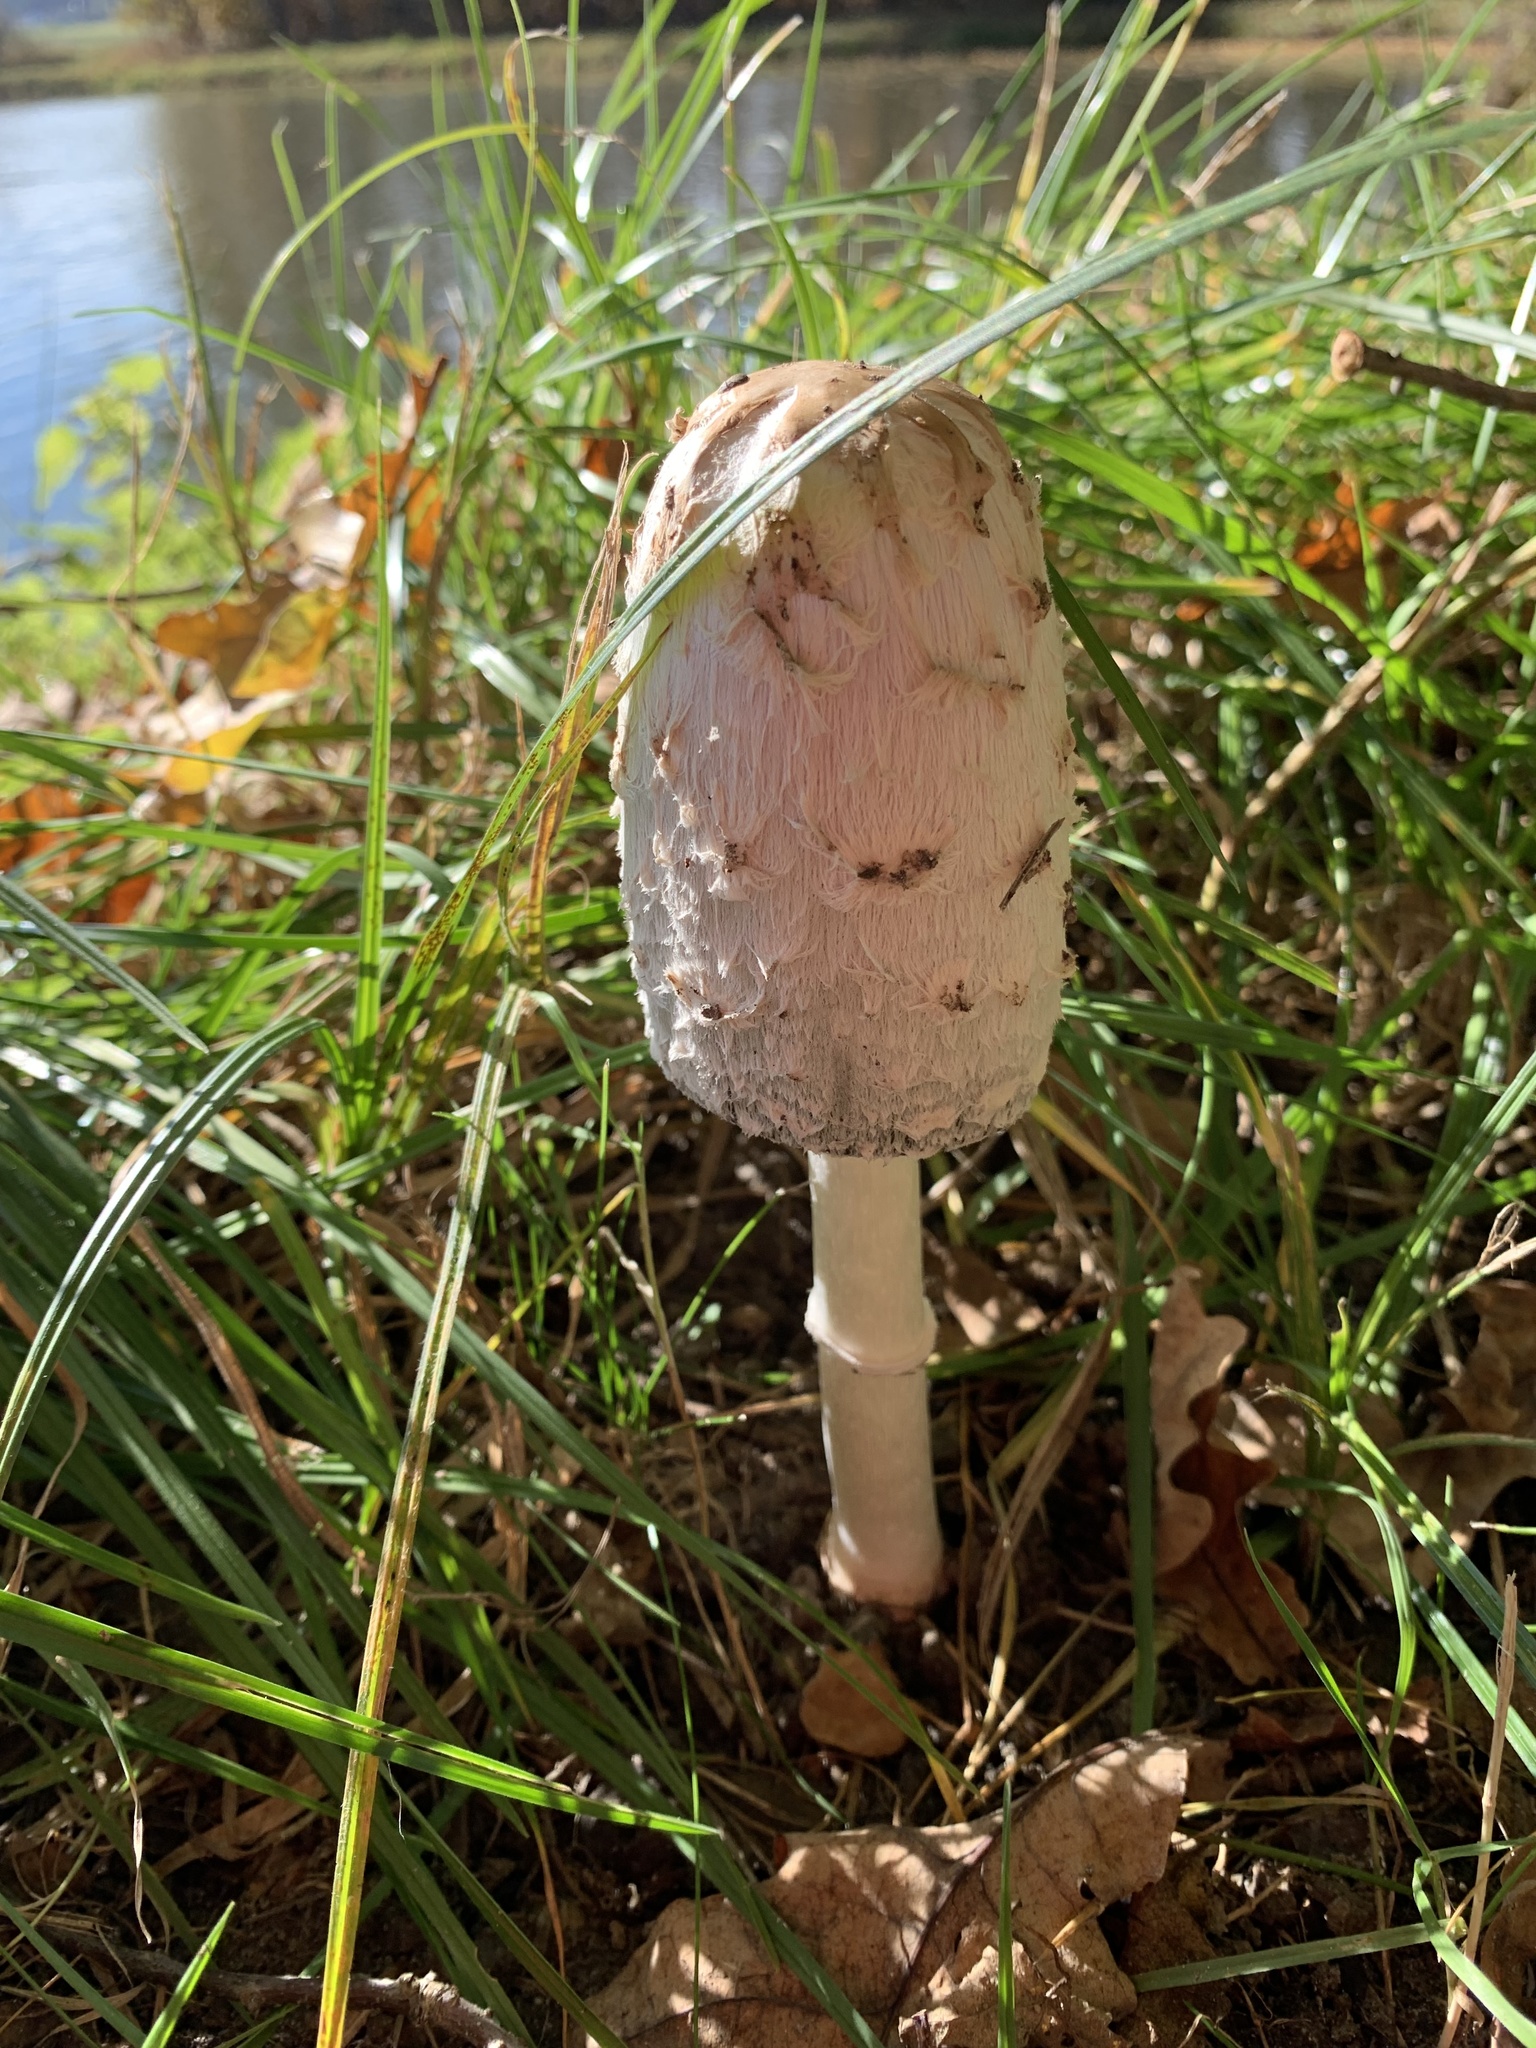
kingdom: Fungi
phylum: Basidiomycota
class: Agaricomycetes
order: Agaricales
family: Agaricaceae
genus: Coprinus
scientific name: Coprinus comatus
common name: Lawyer's wig
